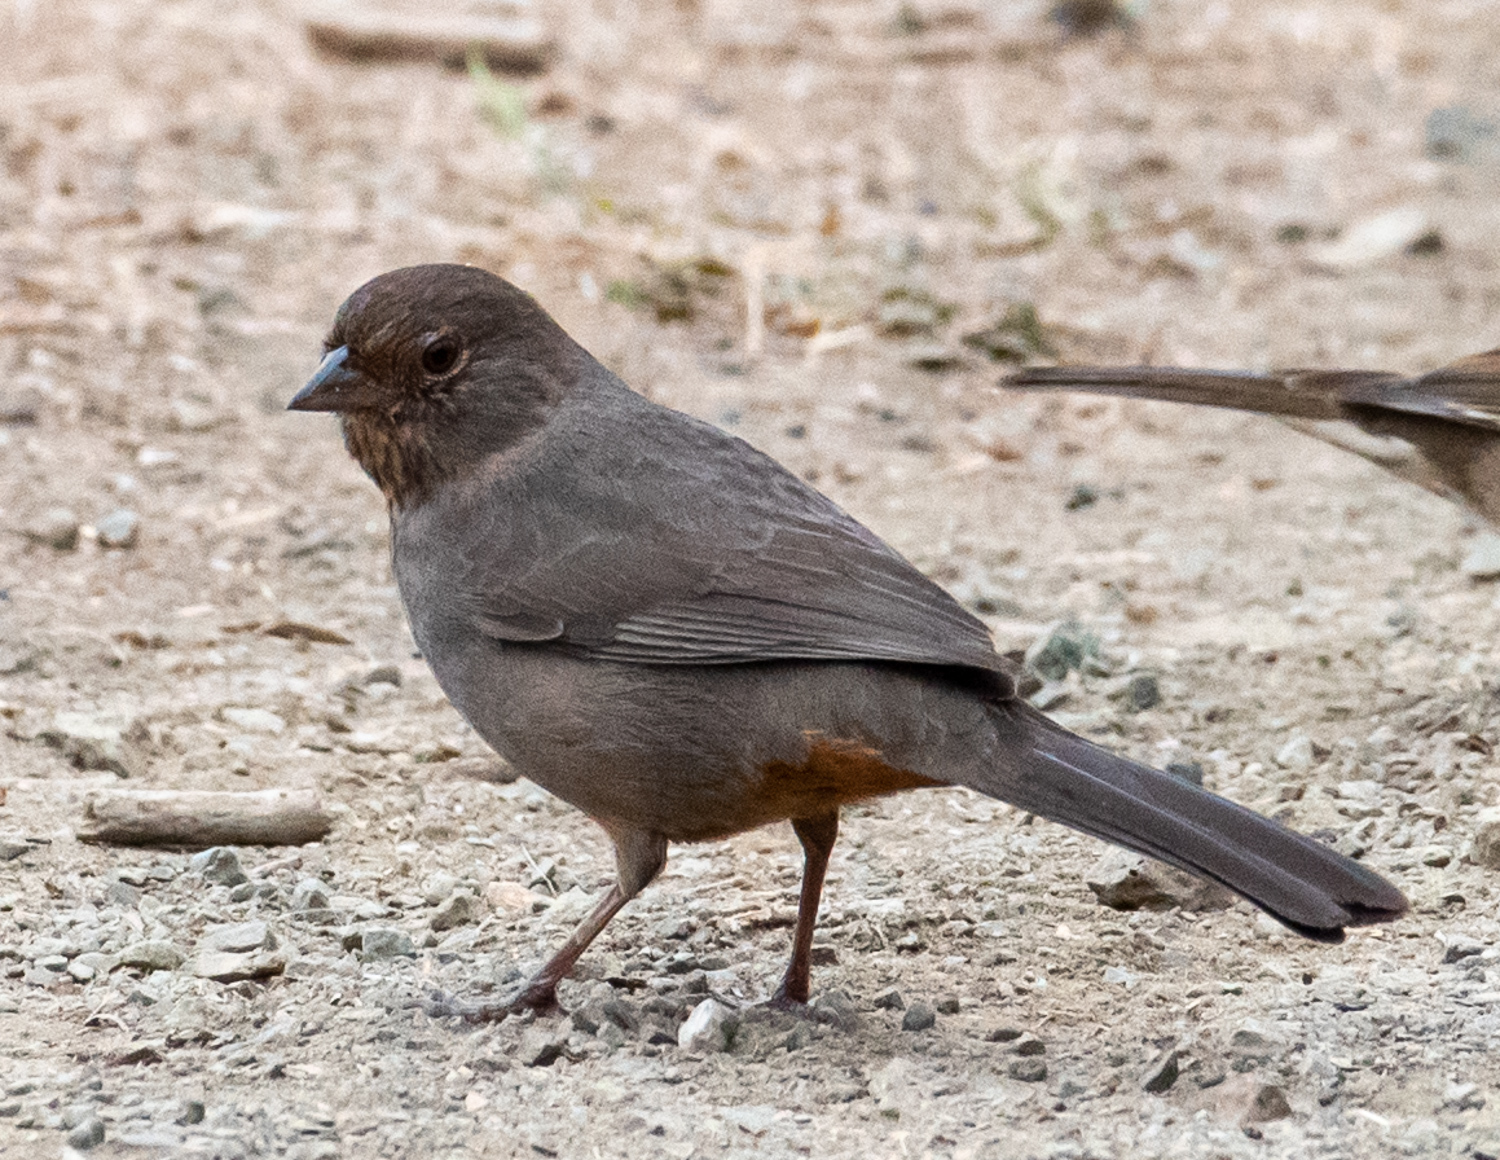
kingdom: Animalia
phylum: Chordata
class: Aves
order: Passeriformes
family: Passerellidae
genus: Melozone
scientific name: Melozone crissalis
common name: California towhee
